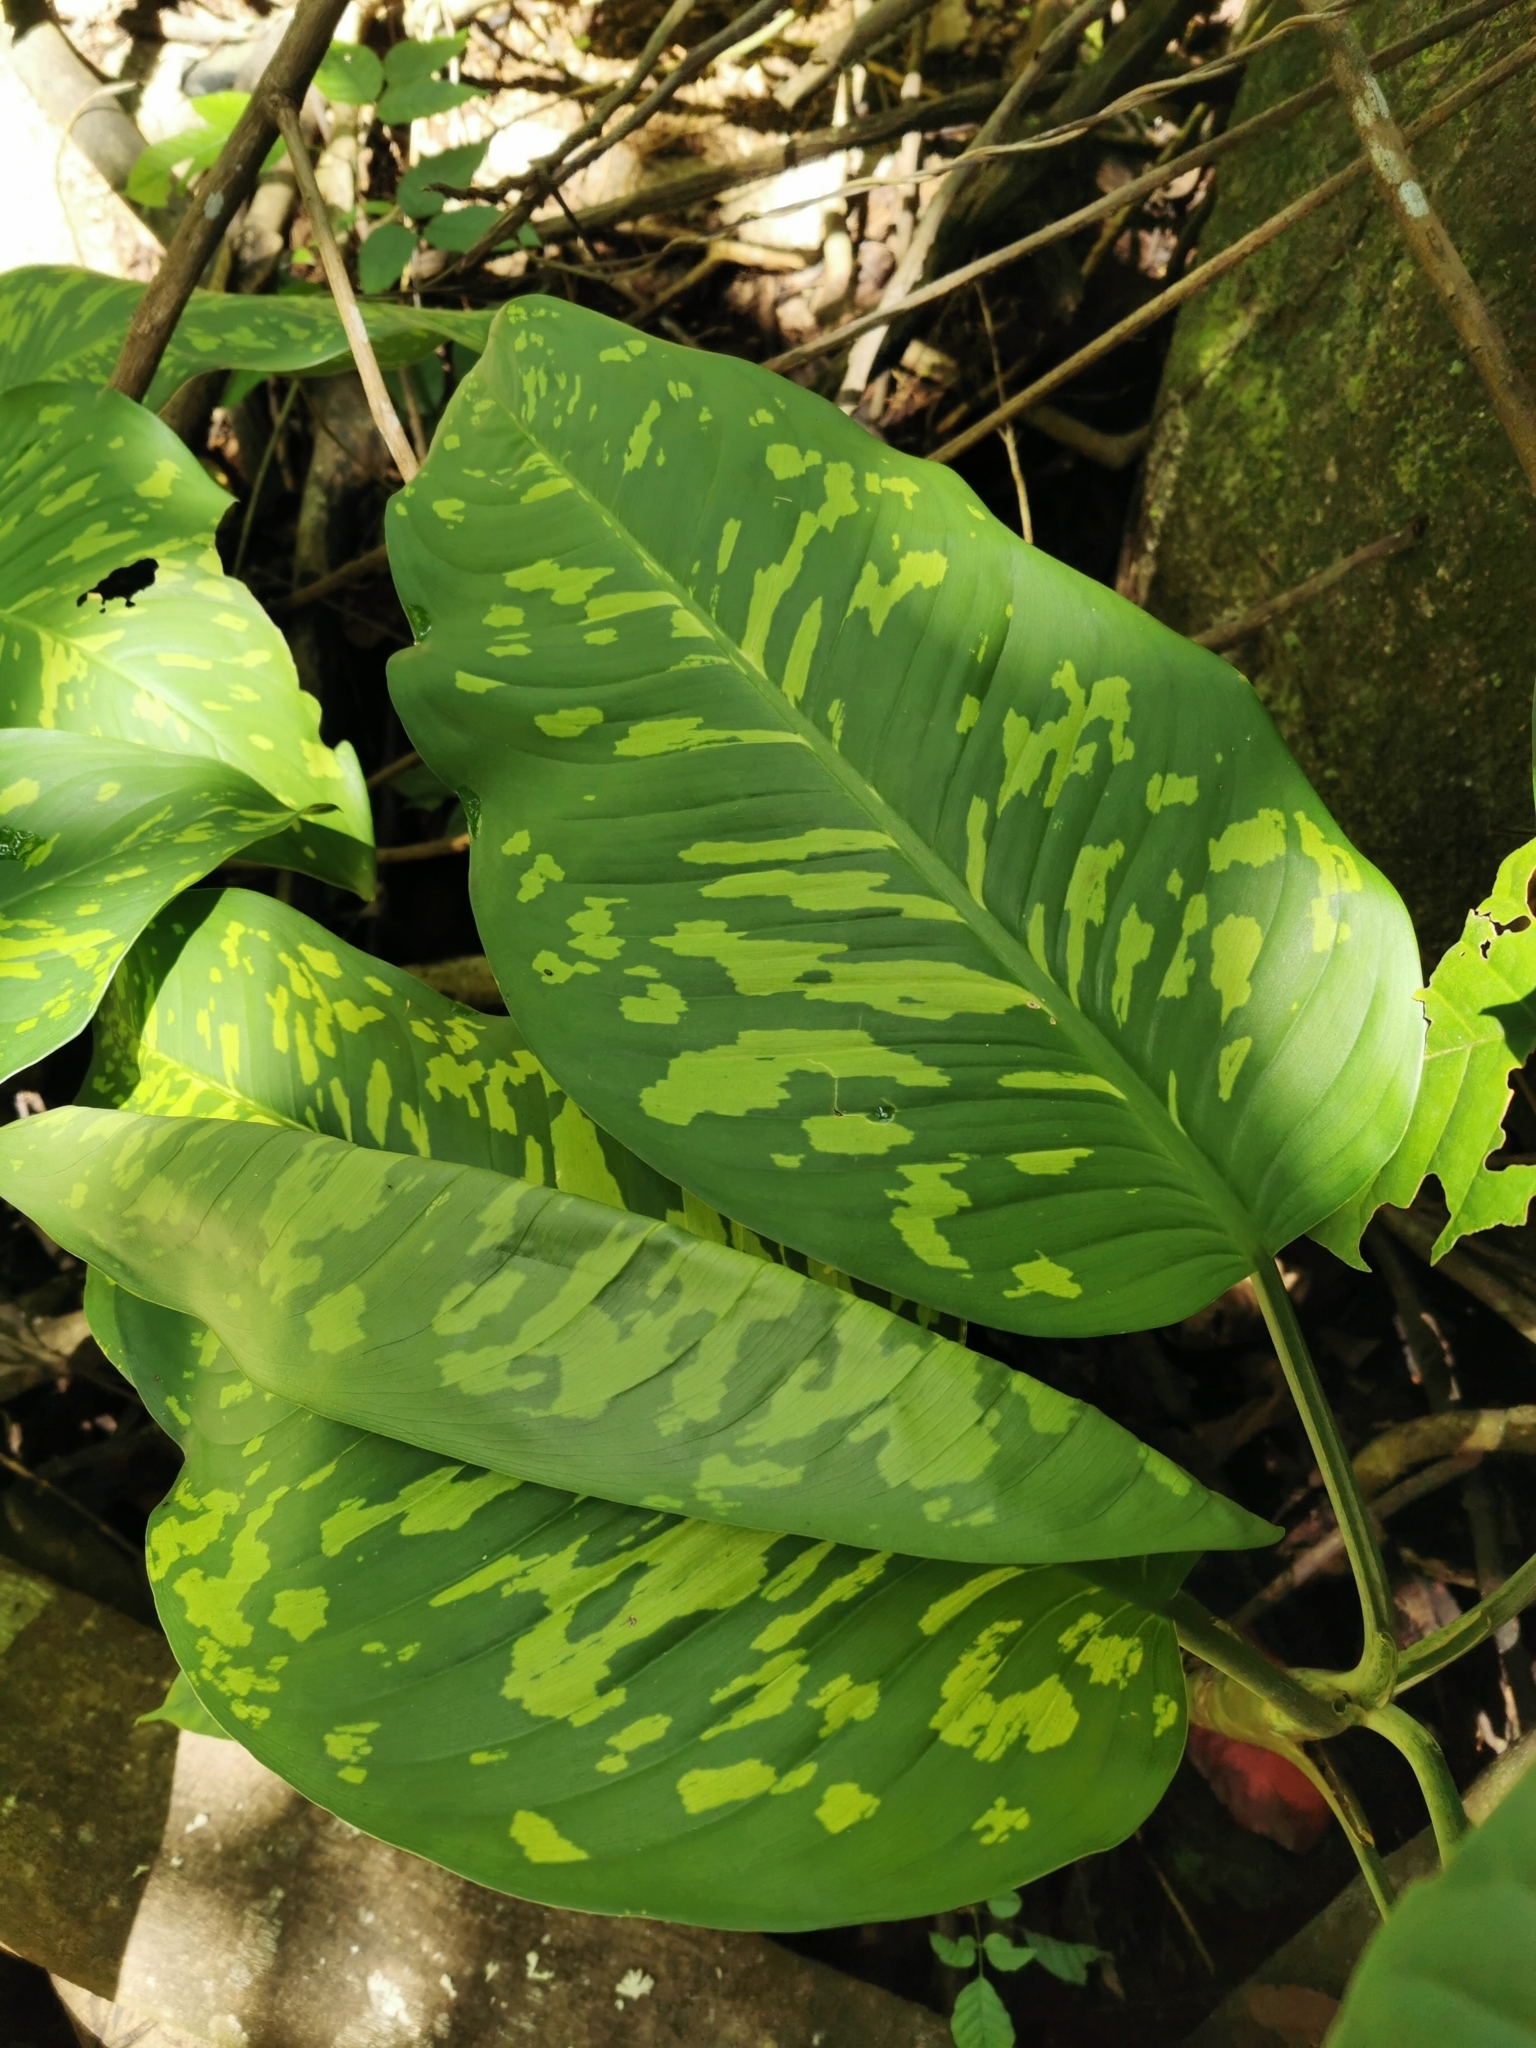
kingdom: Plantae
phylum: Tracheophyta
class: Liliopsida
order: Alismatales
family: Araceae
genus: Dieffenbachia
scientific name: Dieffenbachia seguine
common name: Dumbcane
